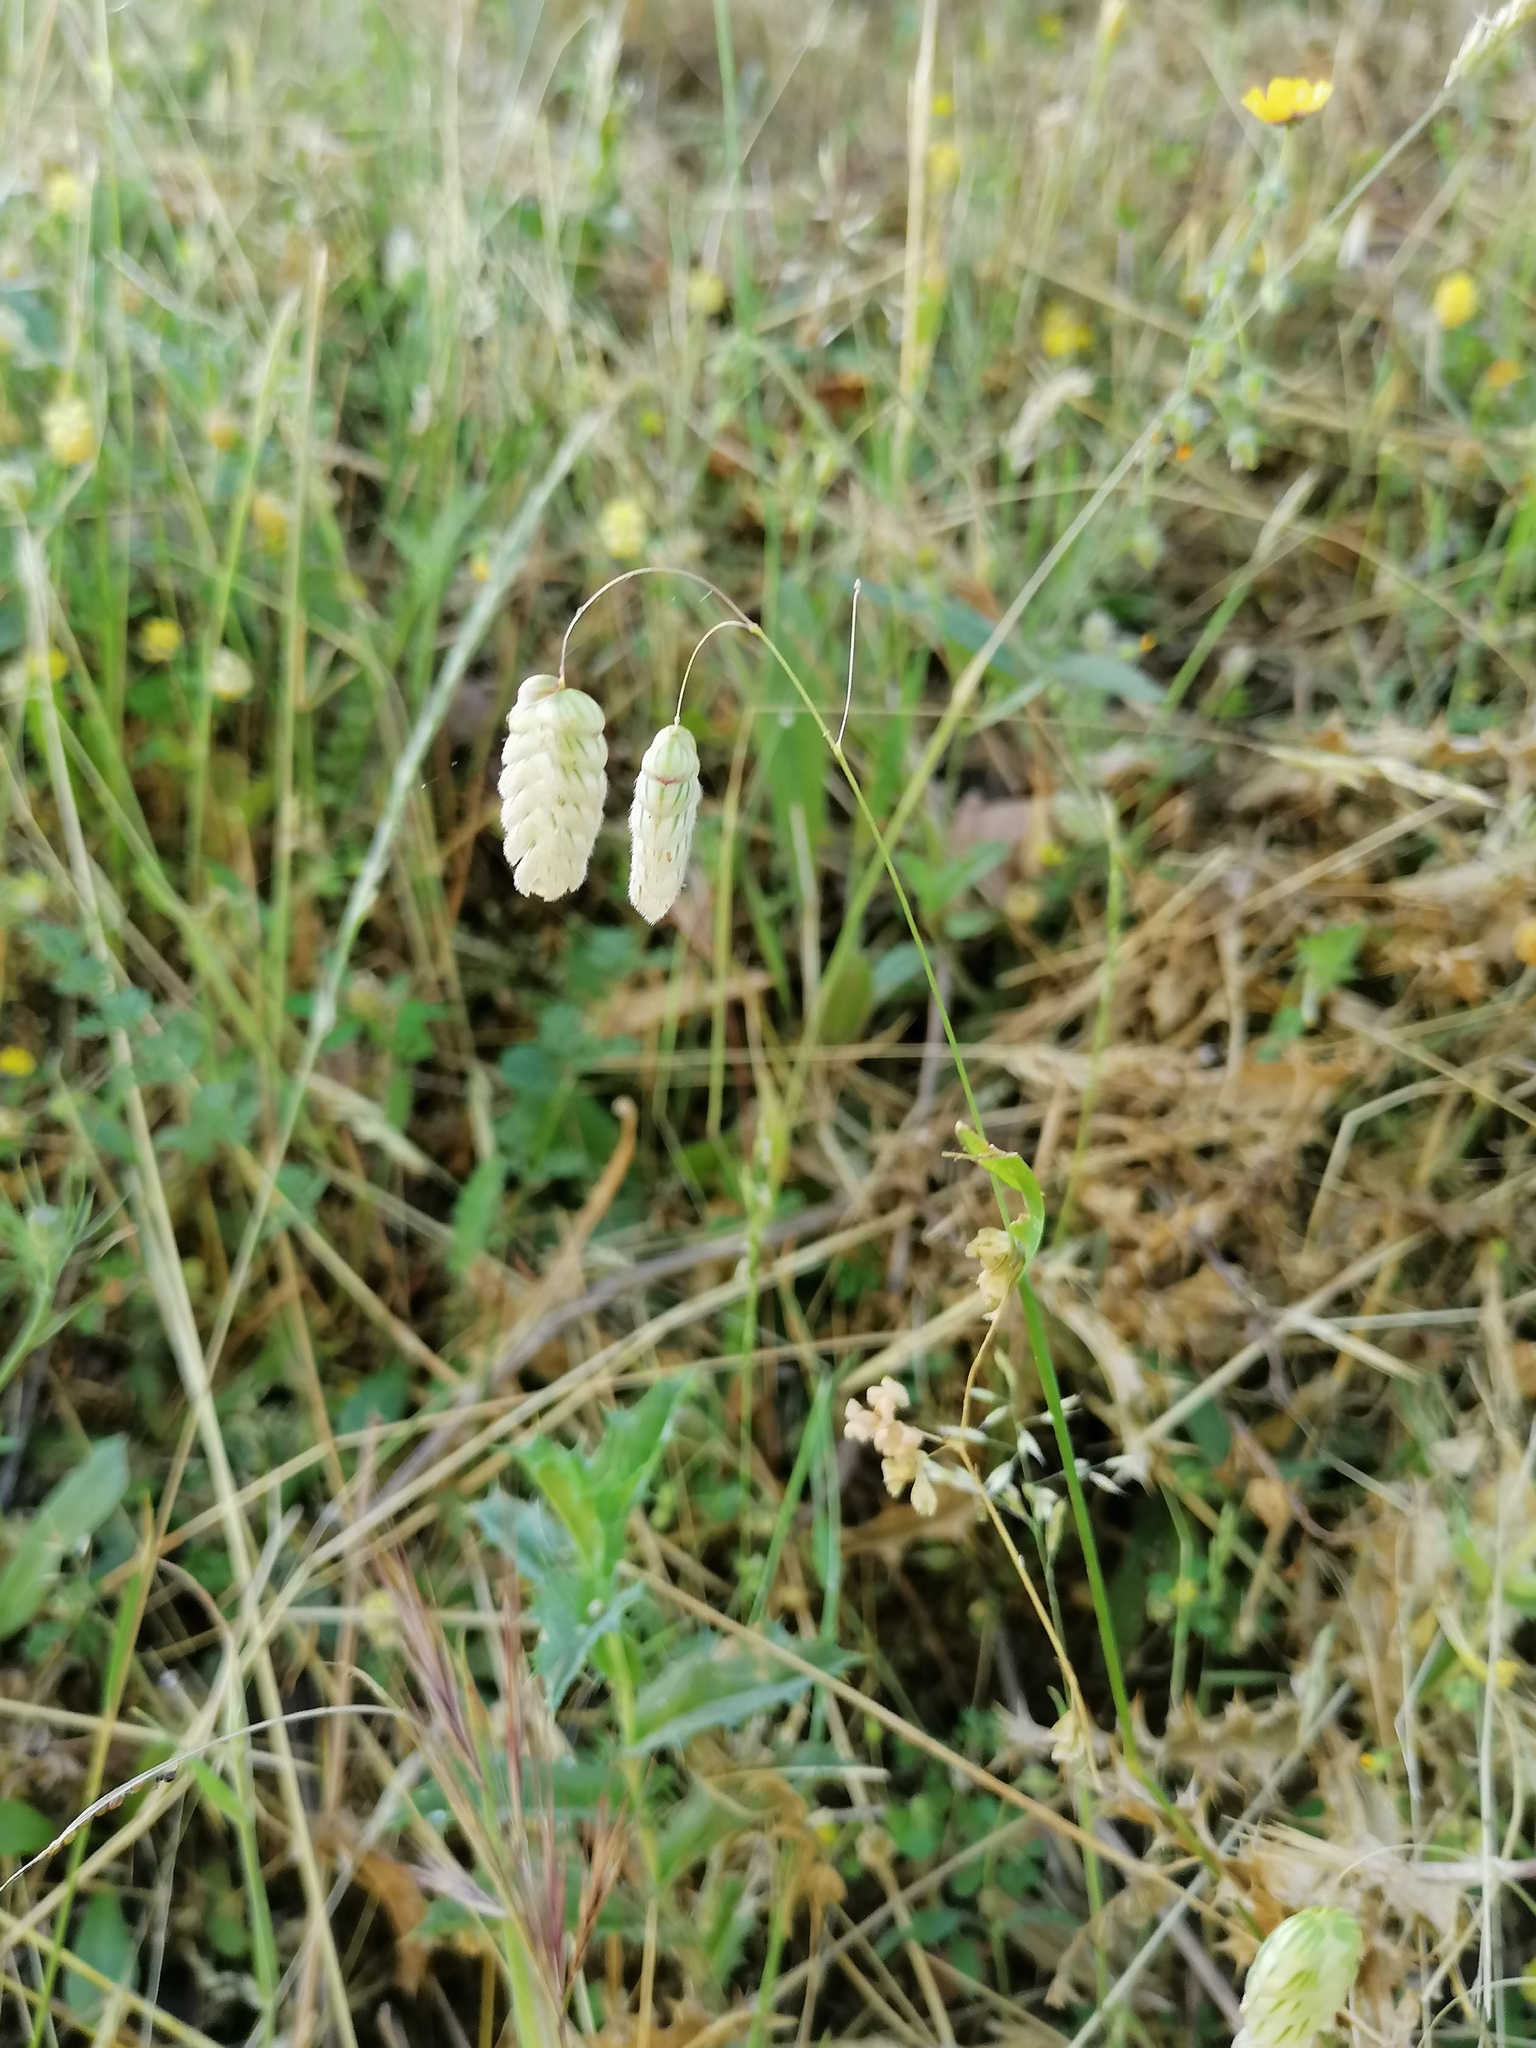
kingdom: Plantae
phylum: Tracheophyta
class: Liliopsida
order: Poales
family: Poaceae
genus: Briza
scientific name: Briza maxima
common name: Big quakinggrass
